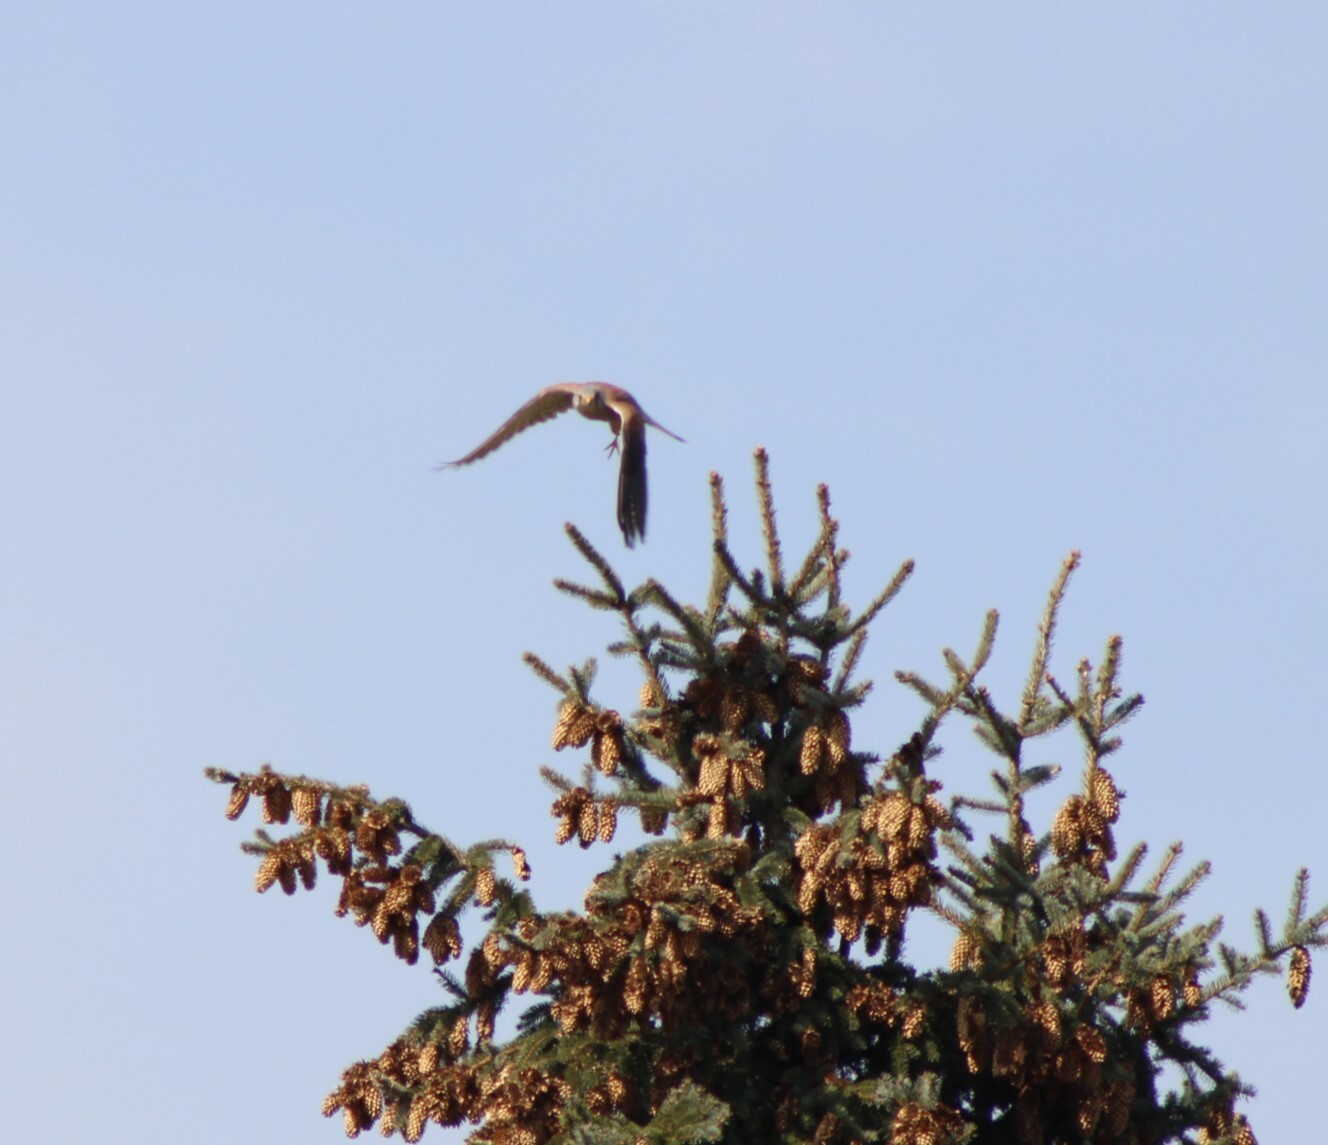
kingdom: Animalia
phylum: Chordata
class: Aves
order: Falconiformes
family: Falconidae
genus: Falco
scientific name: Falco tinnunculus
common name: Common kestrel
